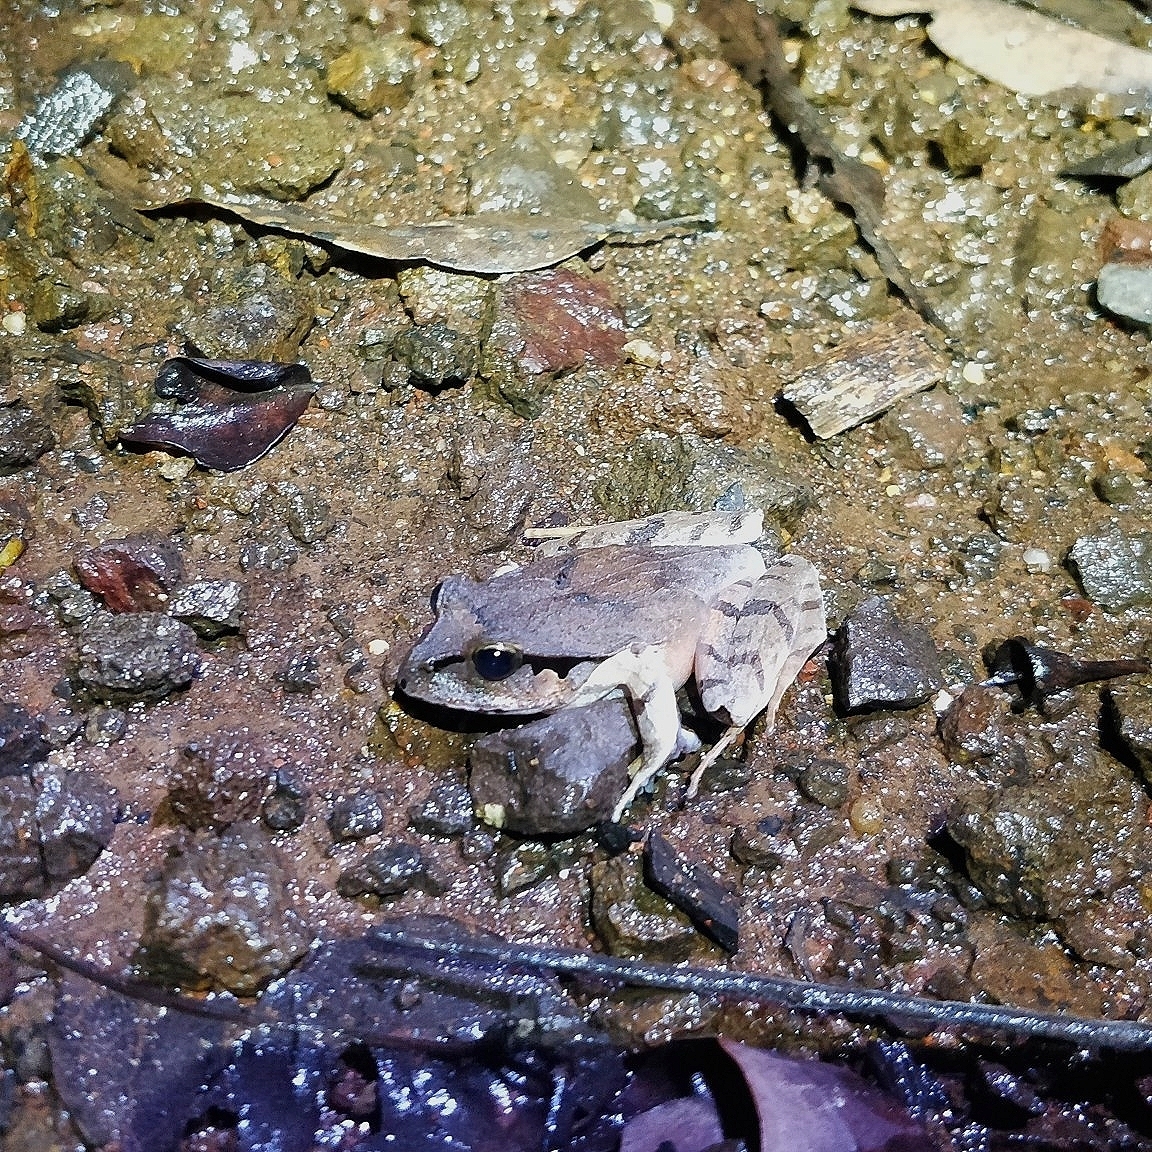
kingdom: Animalia
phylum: Chordata
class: Amphibia
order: Anura
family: Limnodynastidae
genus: Platyplectrum
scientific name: Platyplectrum
